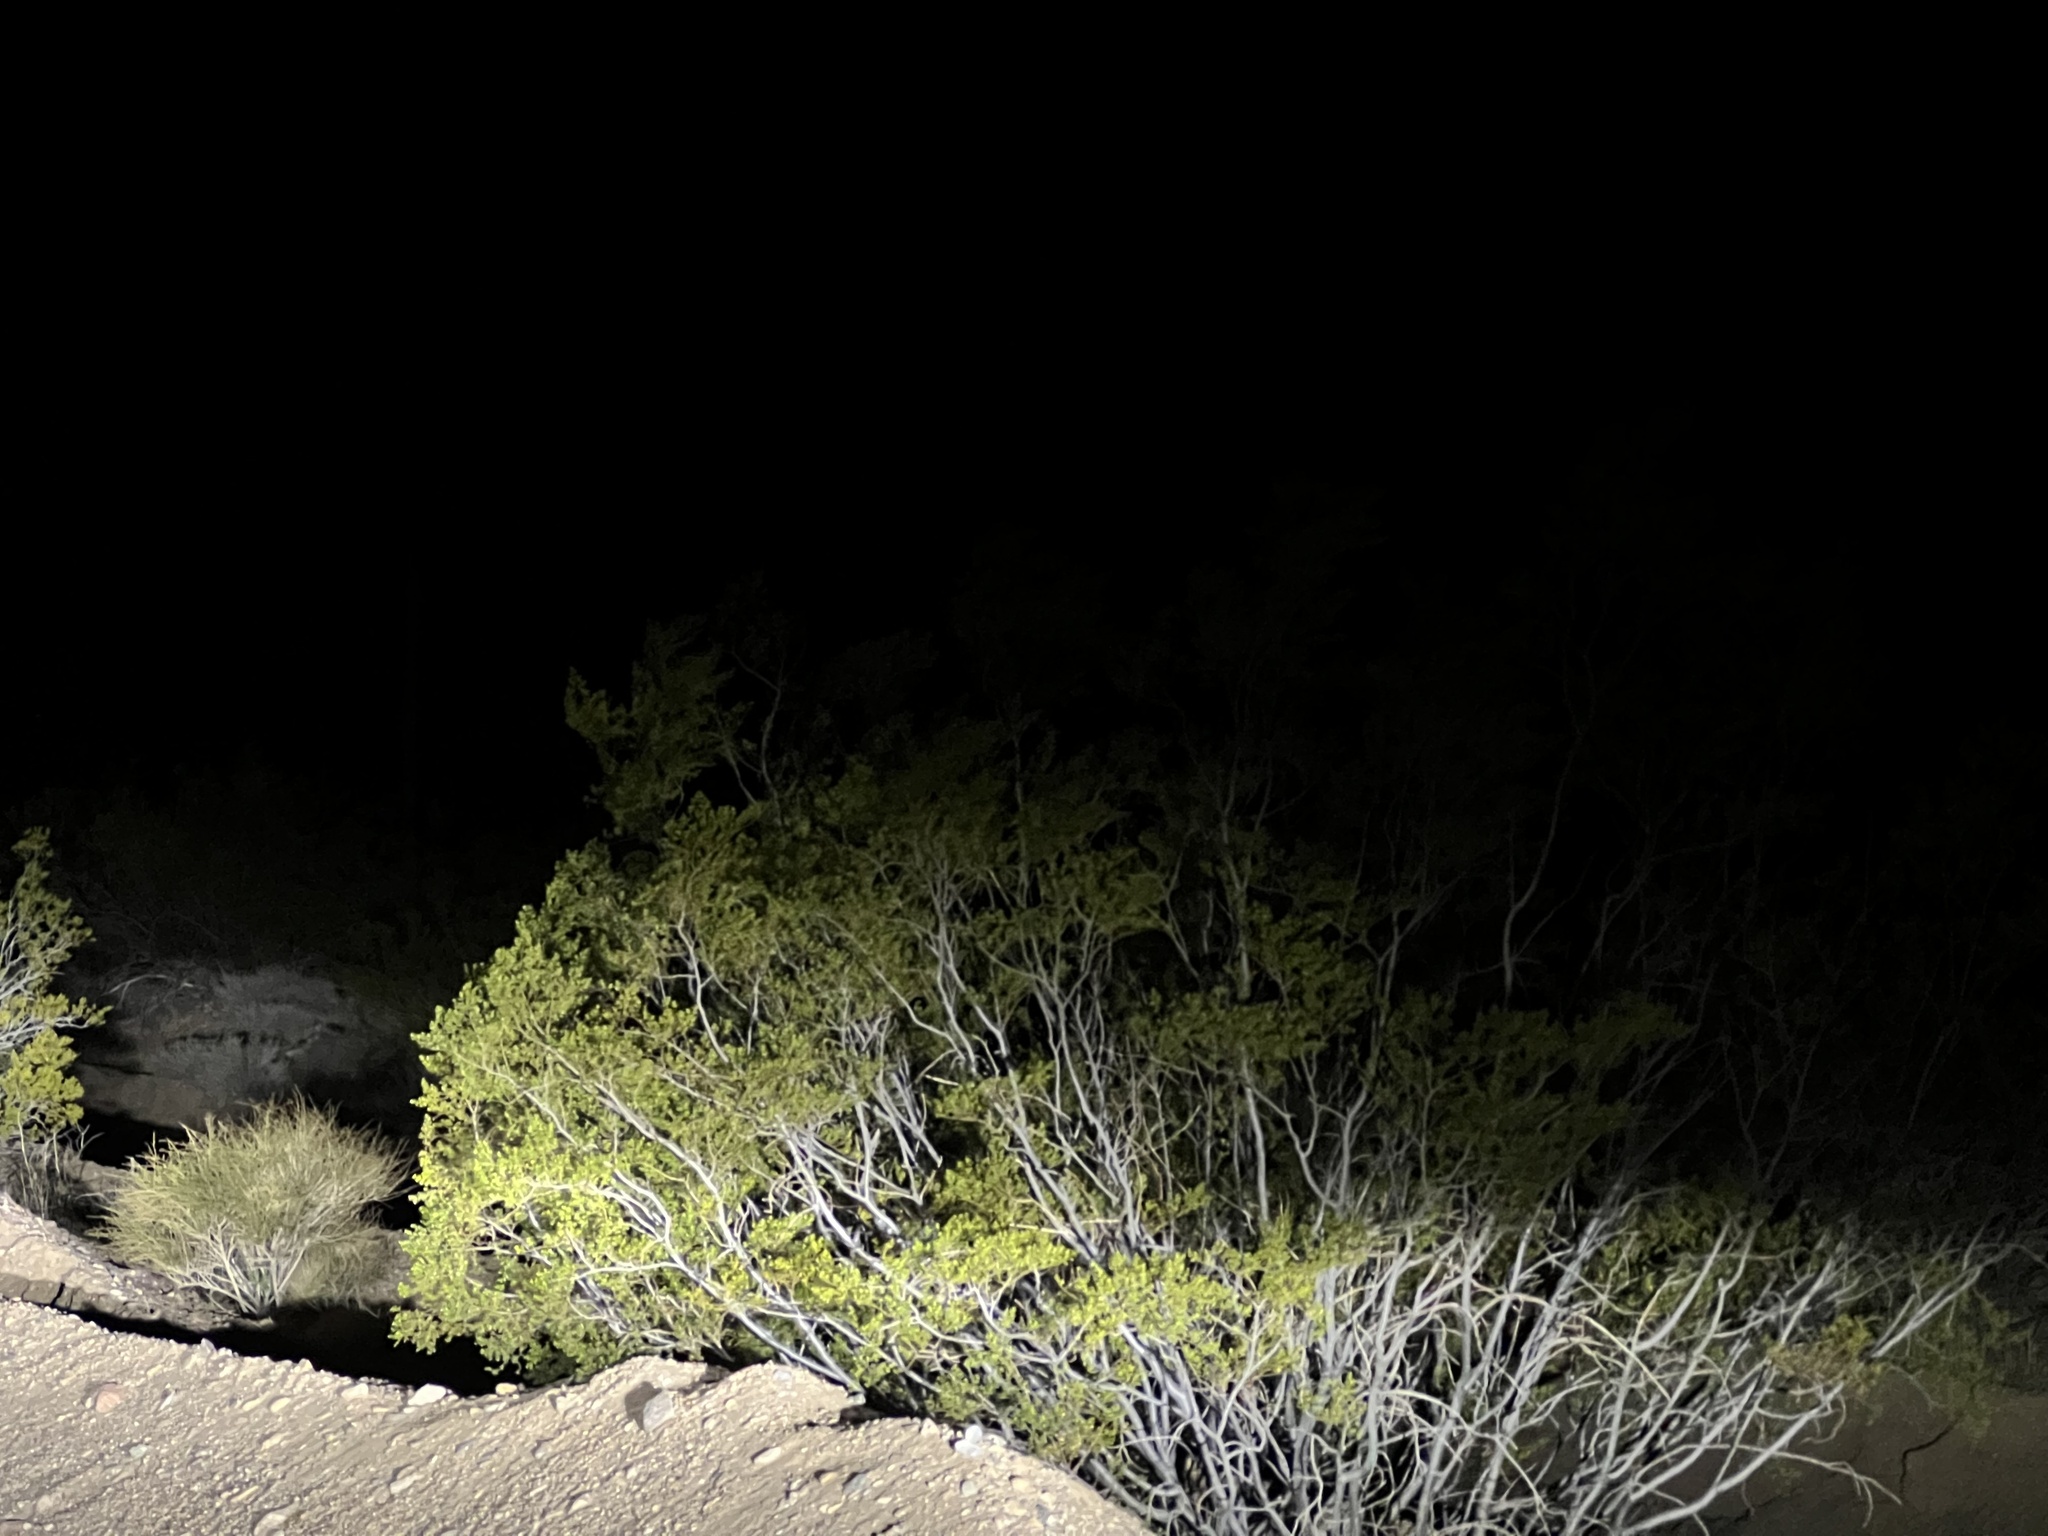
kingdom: Plantae
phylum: Tracheophyta
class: Magnoliopsida
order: Zygophyllales
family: Zygophyllaceae
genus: Larrea
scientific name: Larrea tridentata
